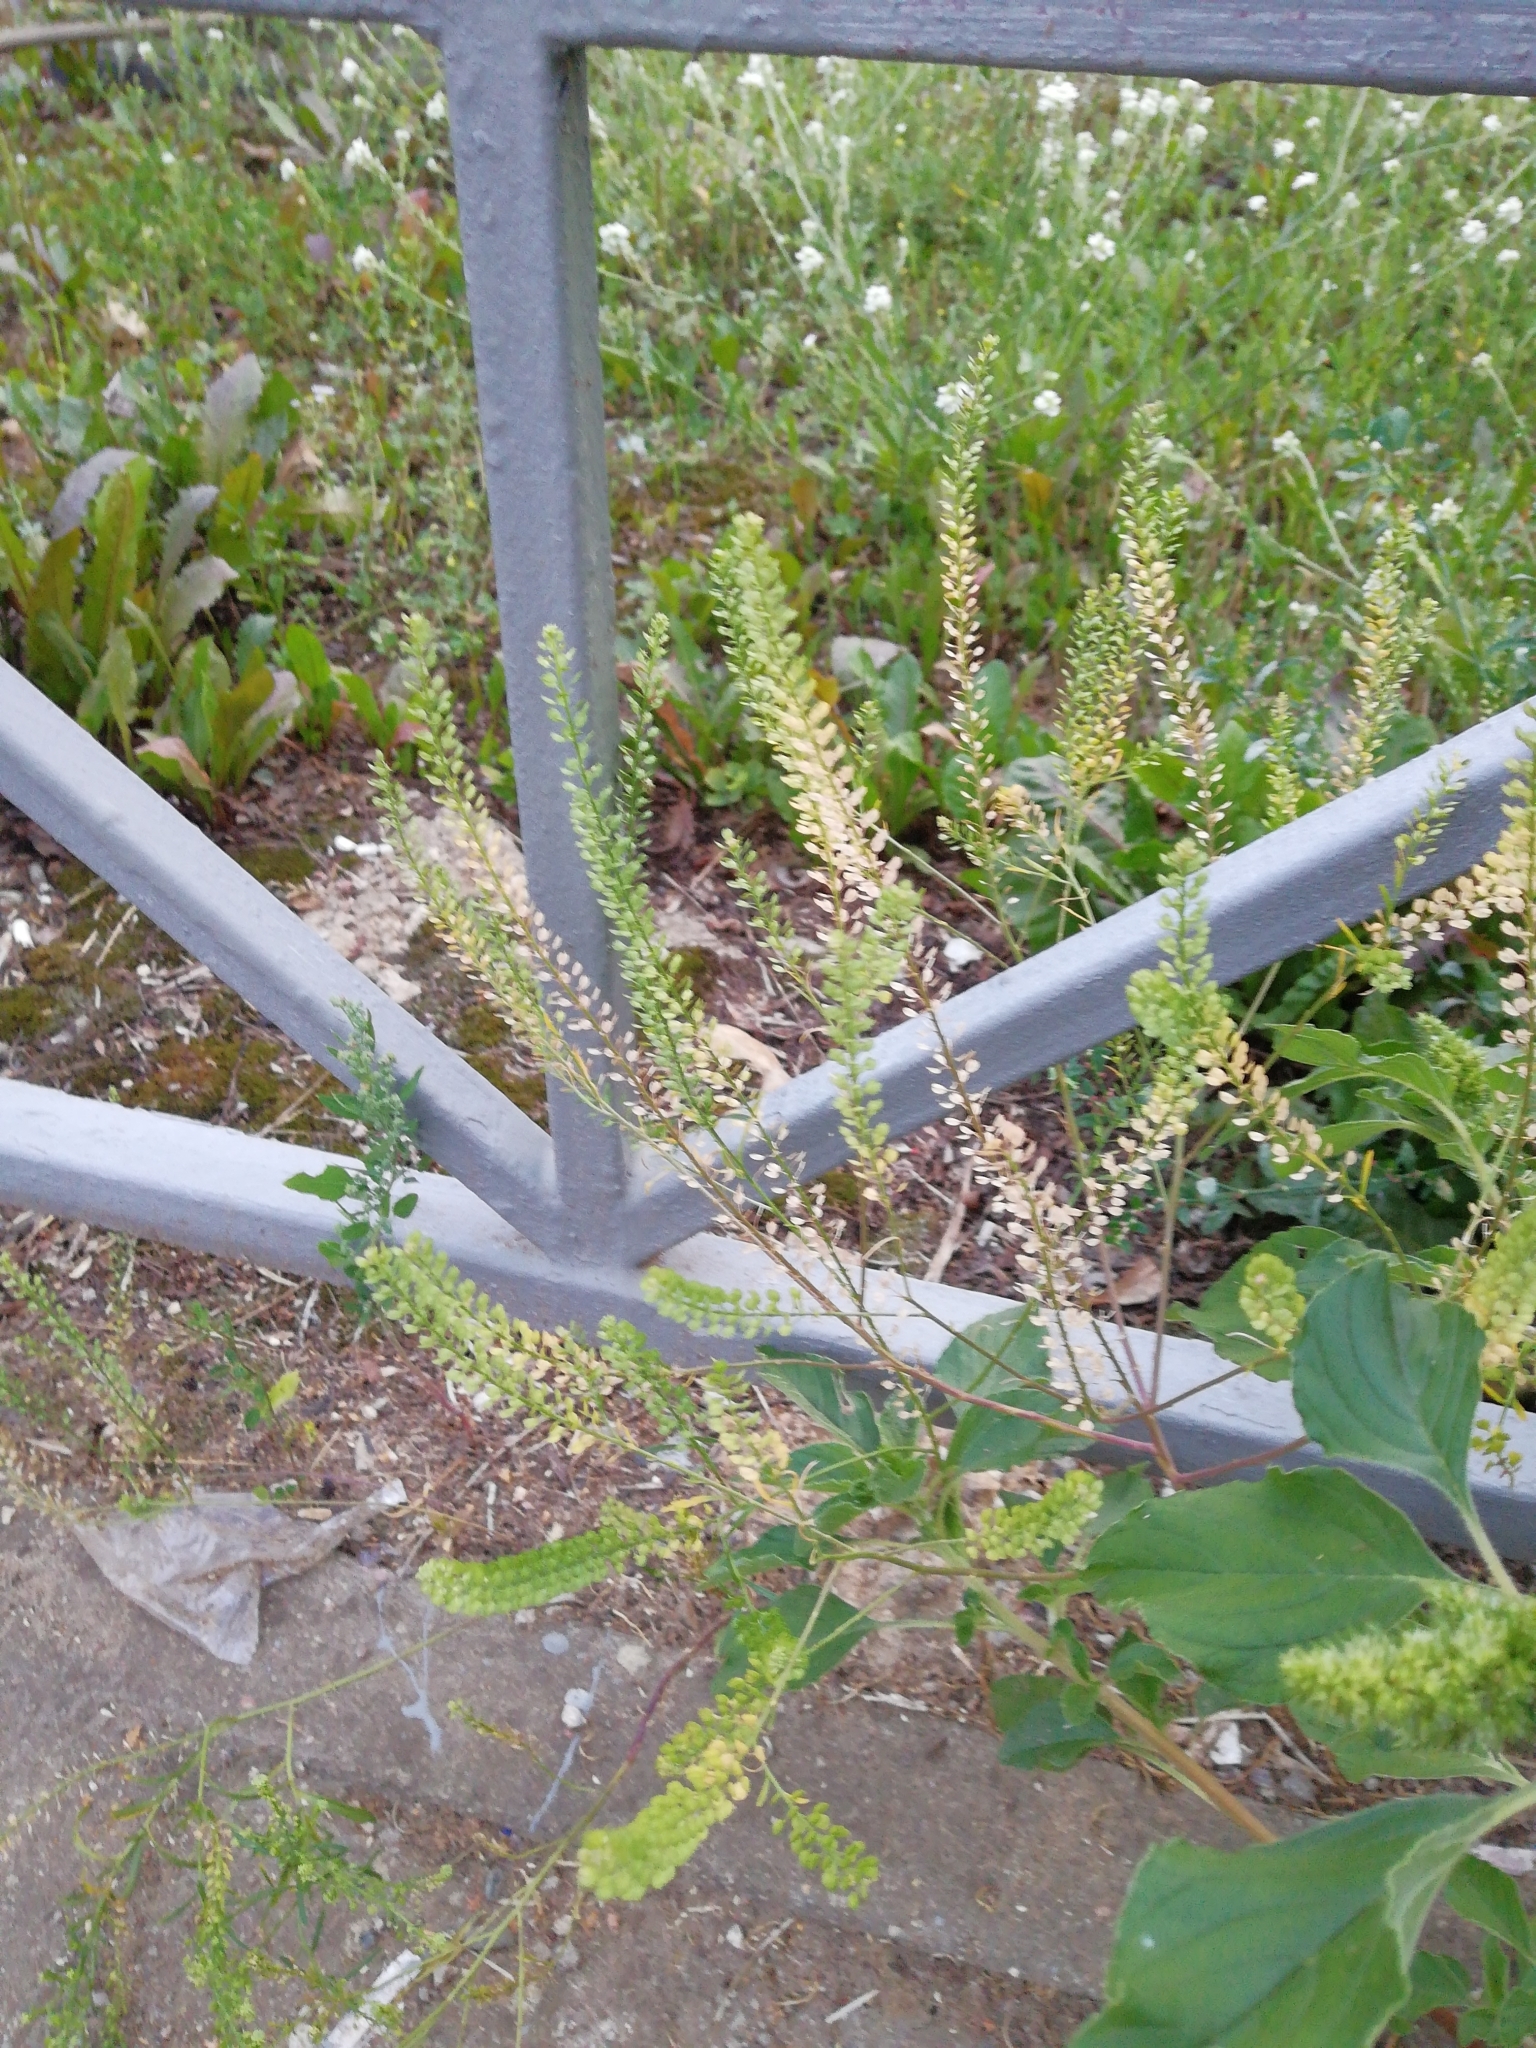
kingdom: Plantae
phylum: Tracheophyta
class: Magnoliopsida
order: Brassicales
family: Brassicaceae
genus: Lepidium
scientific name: Lepidium densiflorum
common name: Miner's pepperwort
